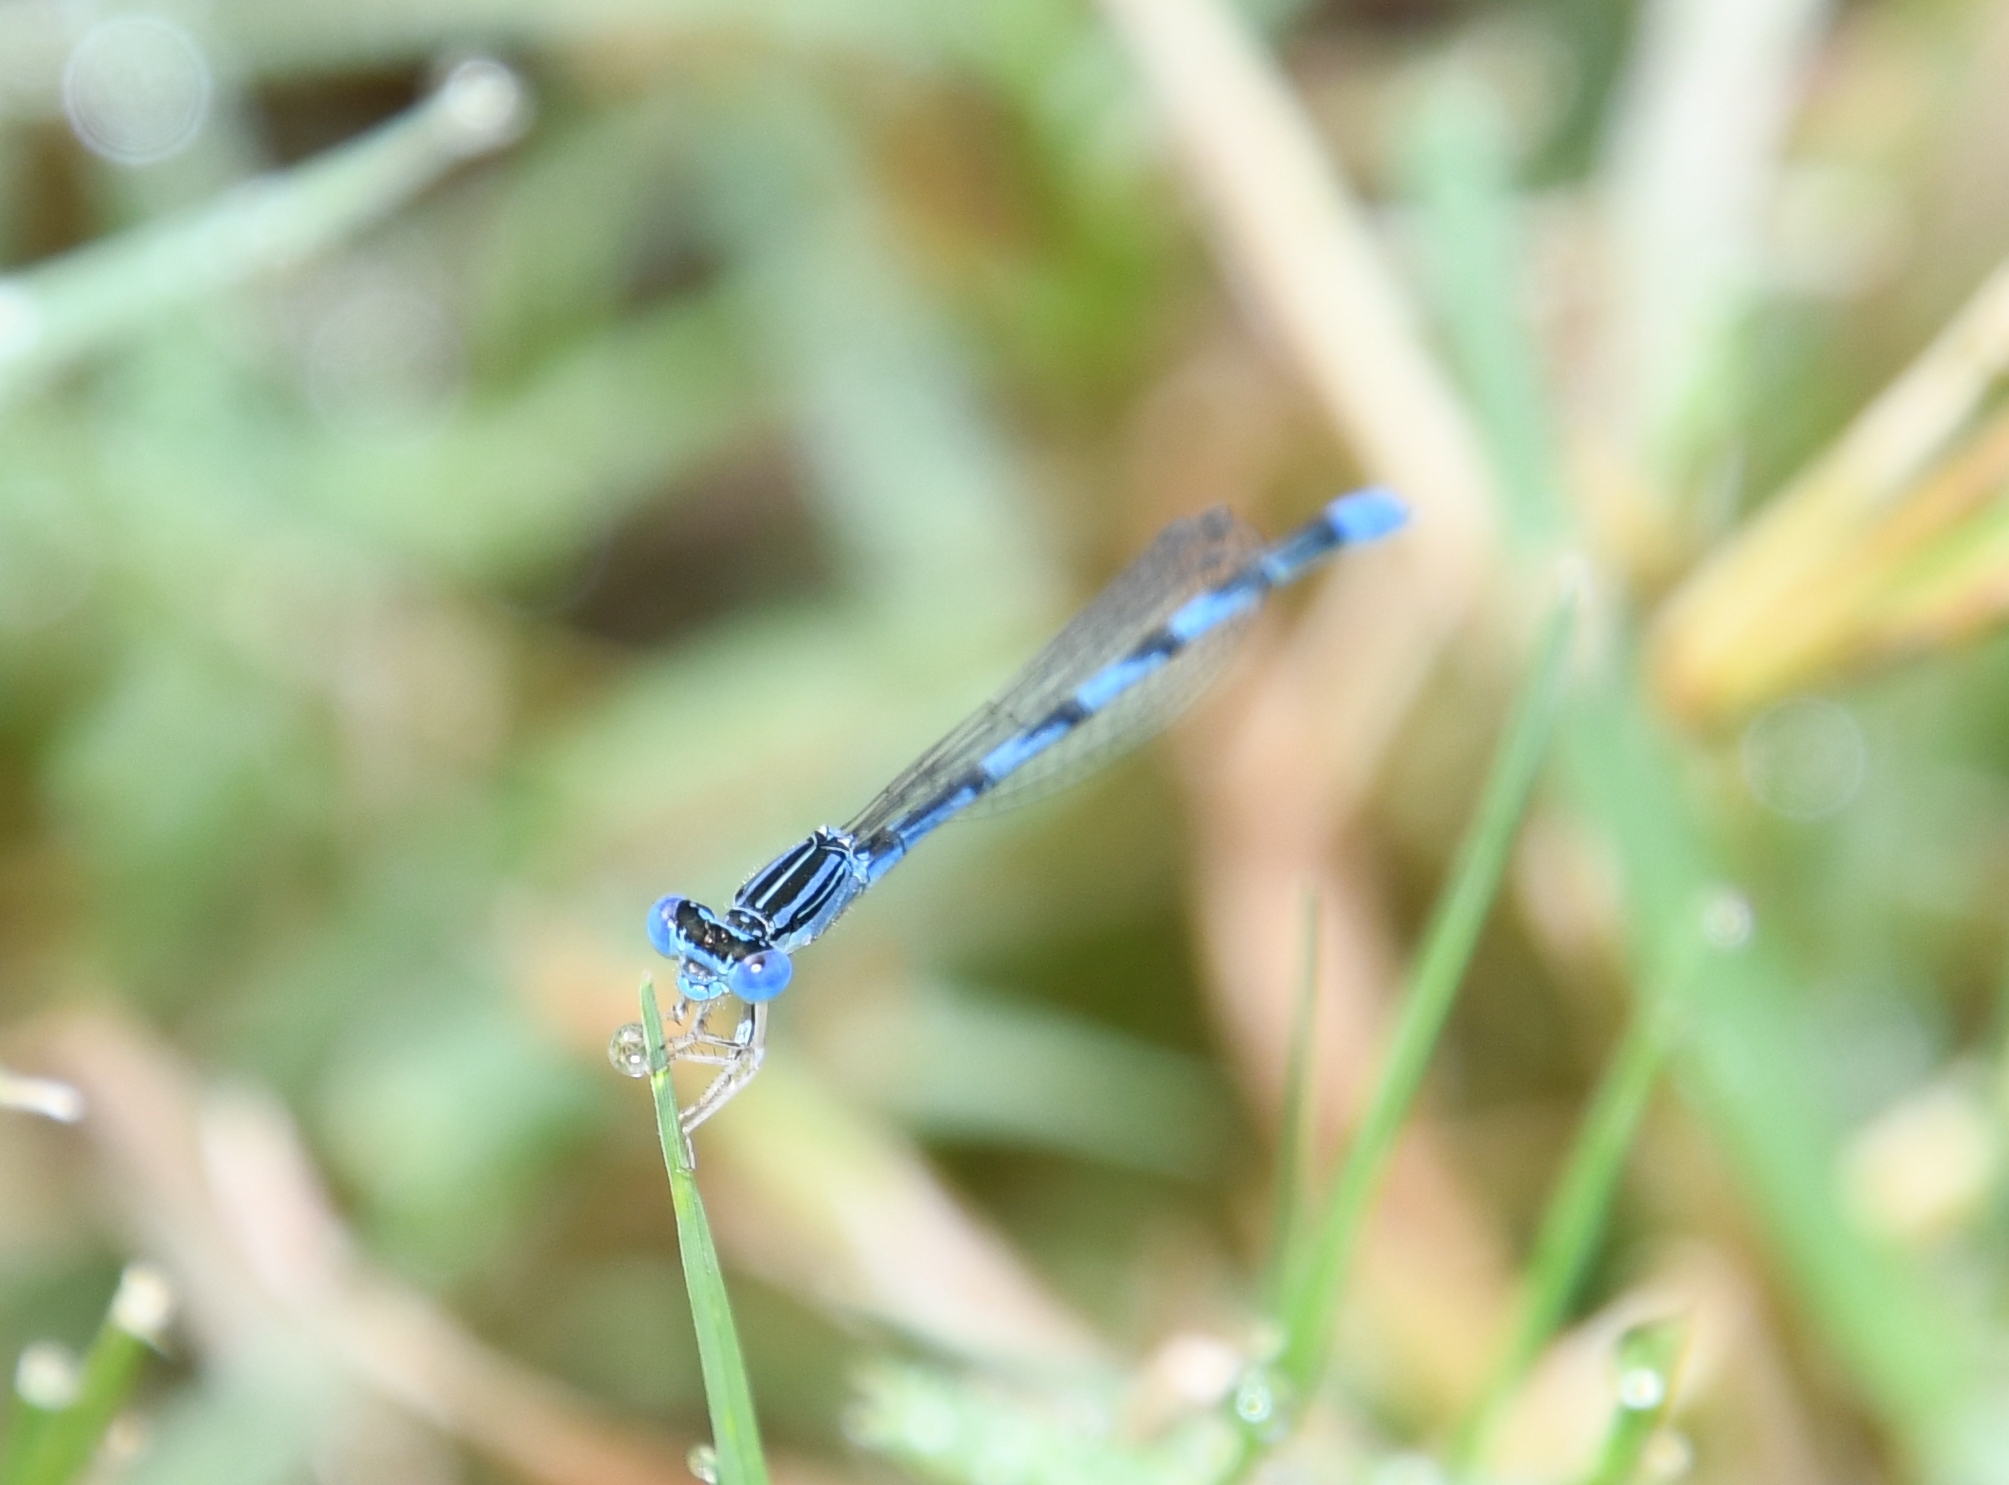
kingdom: Animalia
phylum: Arthropoda
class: Insecta
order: Odonata
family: Coenagrionidae
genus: Enallagma
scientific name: Enallagma basidens
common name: Double-striped bluet
